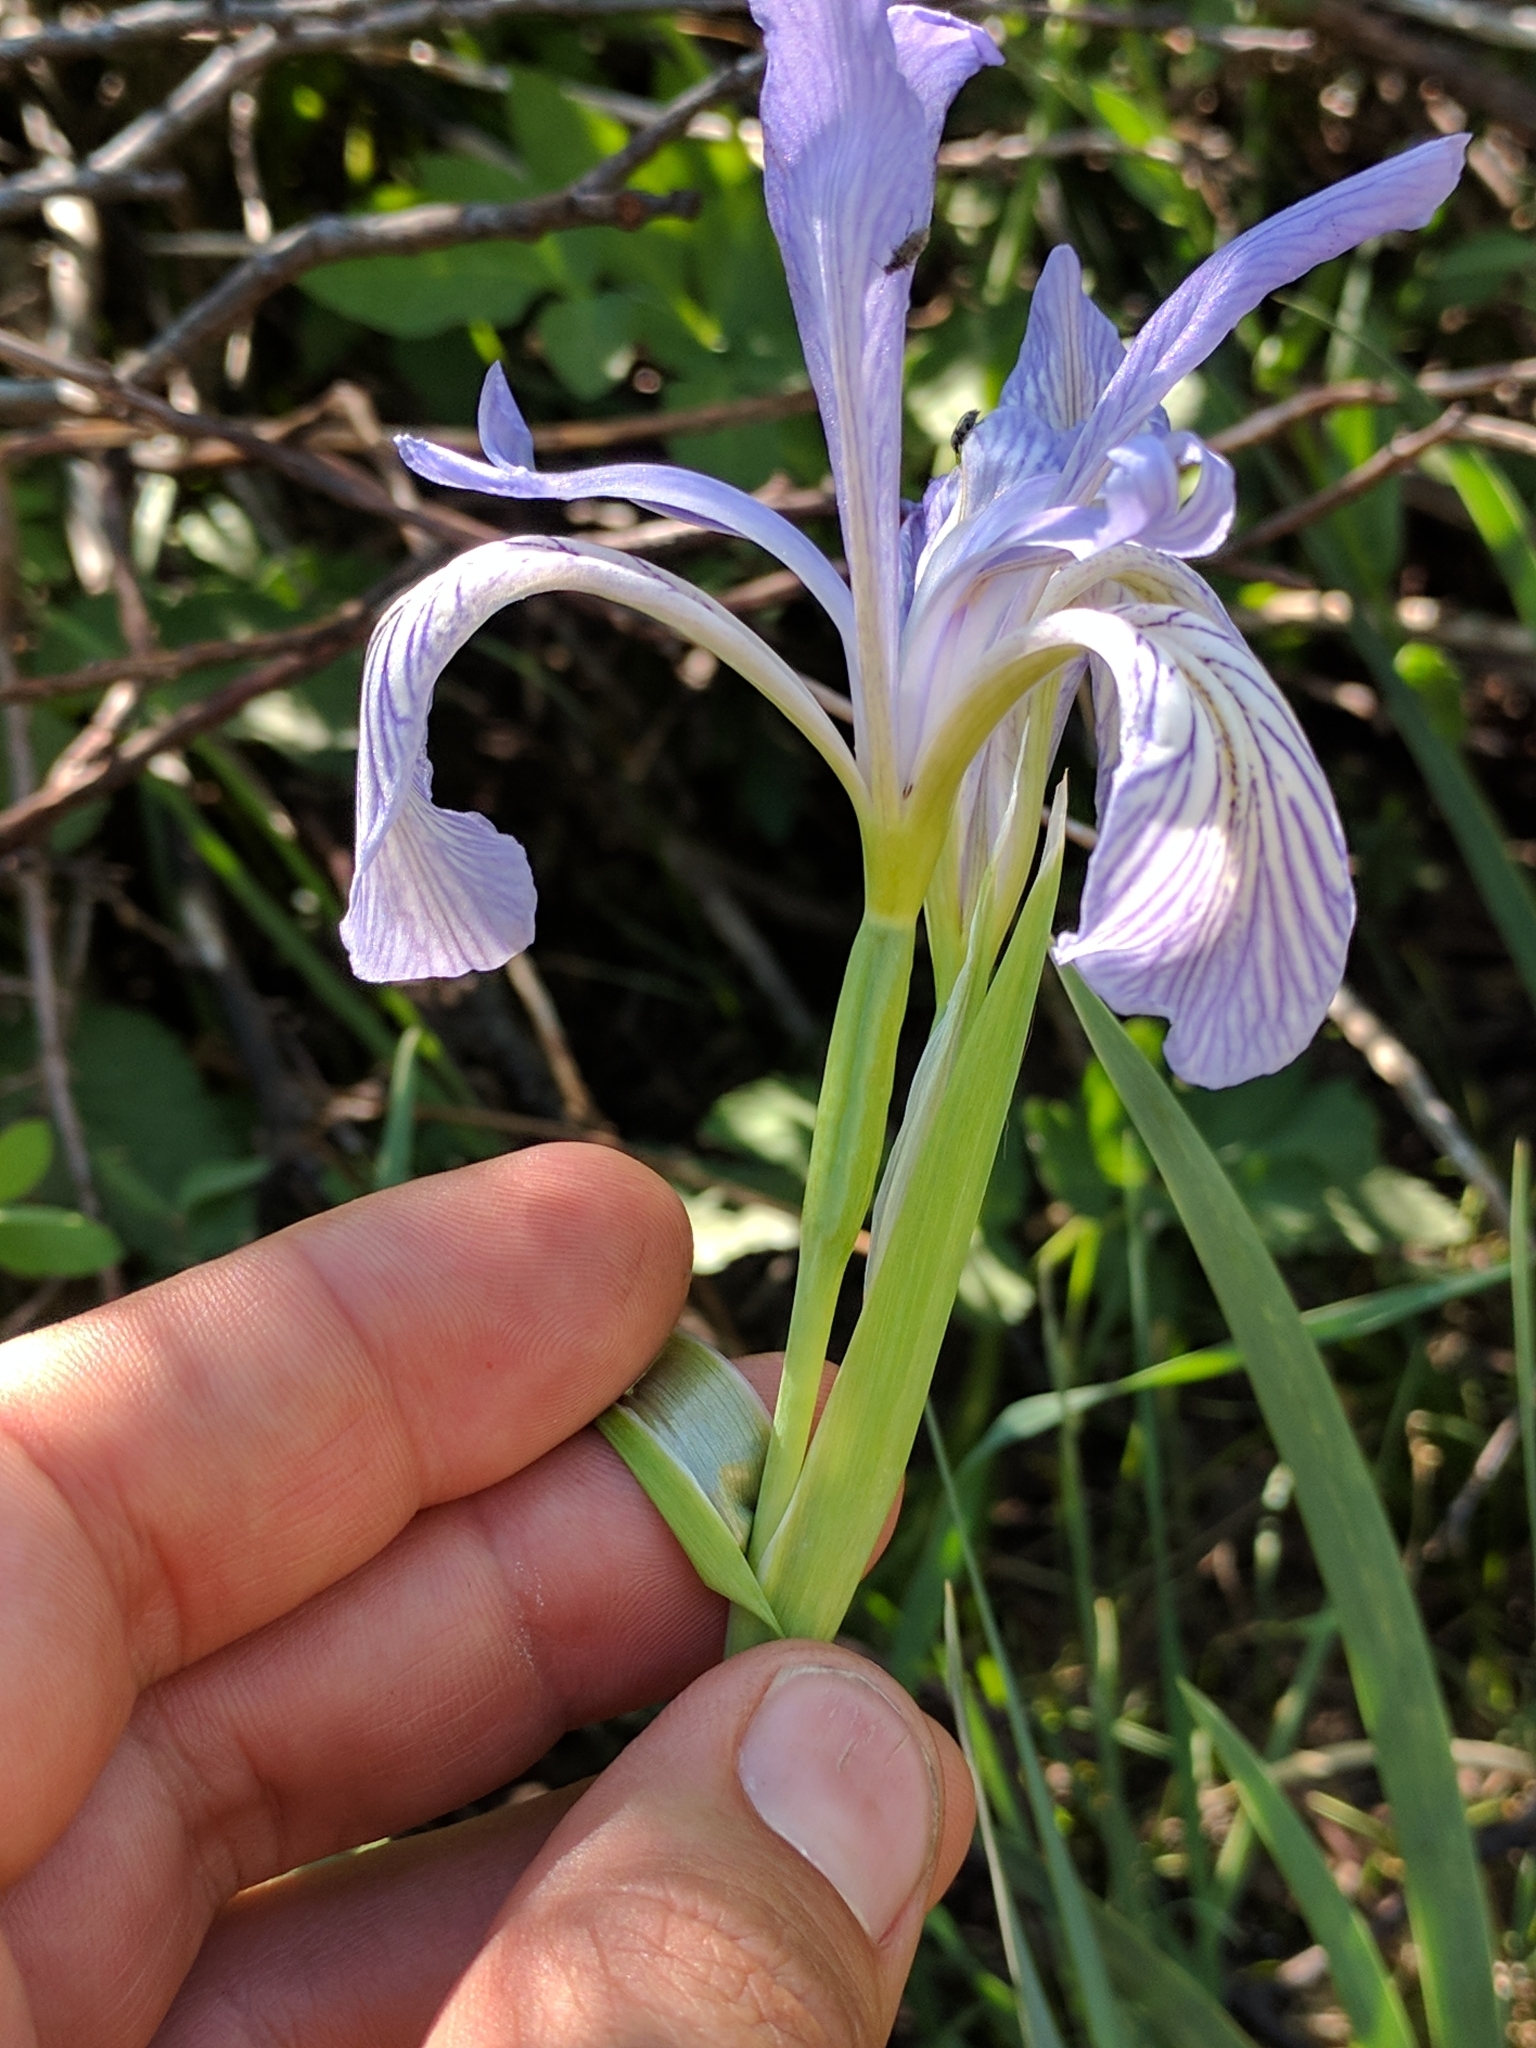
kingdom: Plantae
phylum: Tracheophyta
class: Liliopsida
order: Asparagales
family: Iridaceae
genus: Iris
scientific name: Iris missouriensis
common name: Rocky mountain iris
